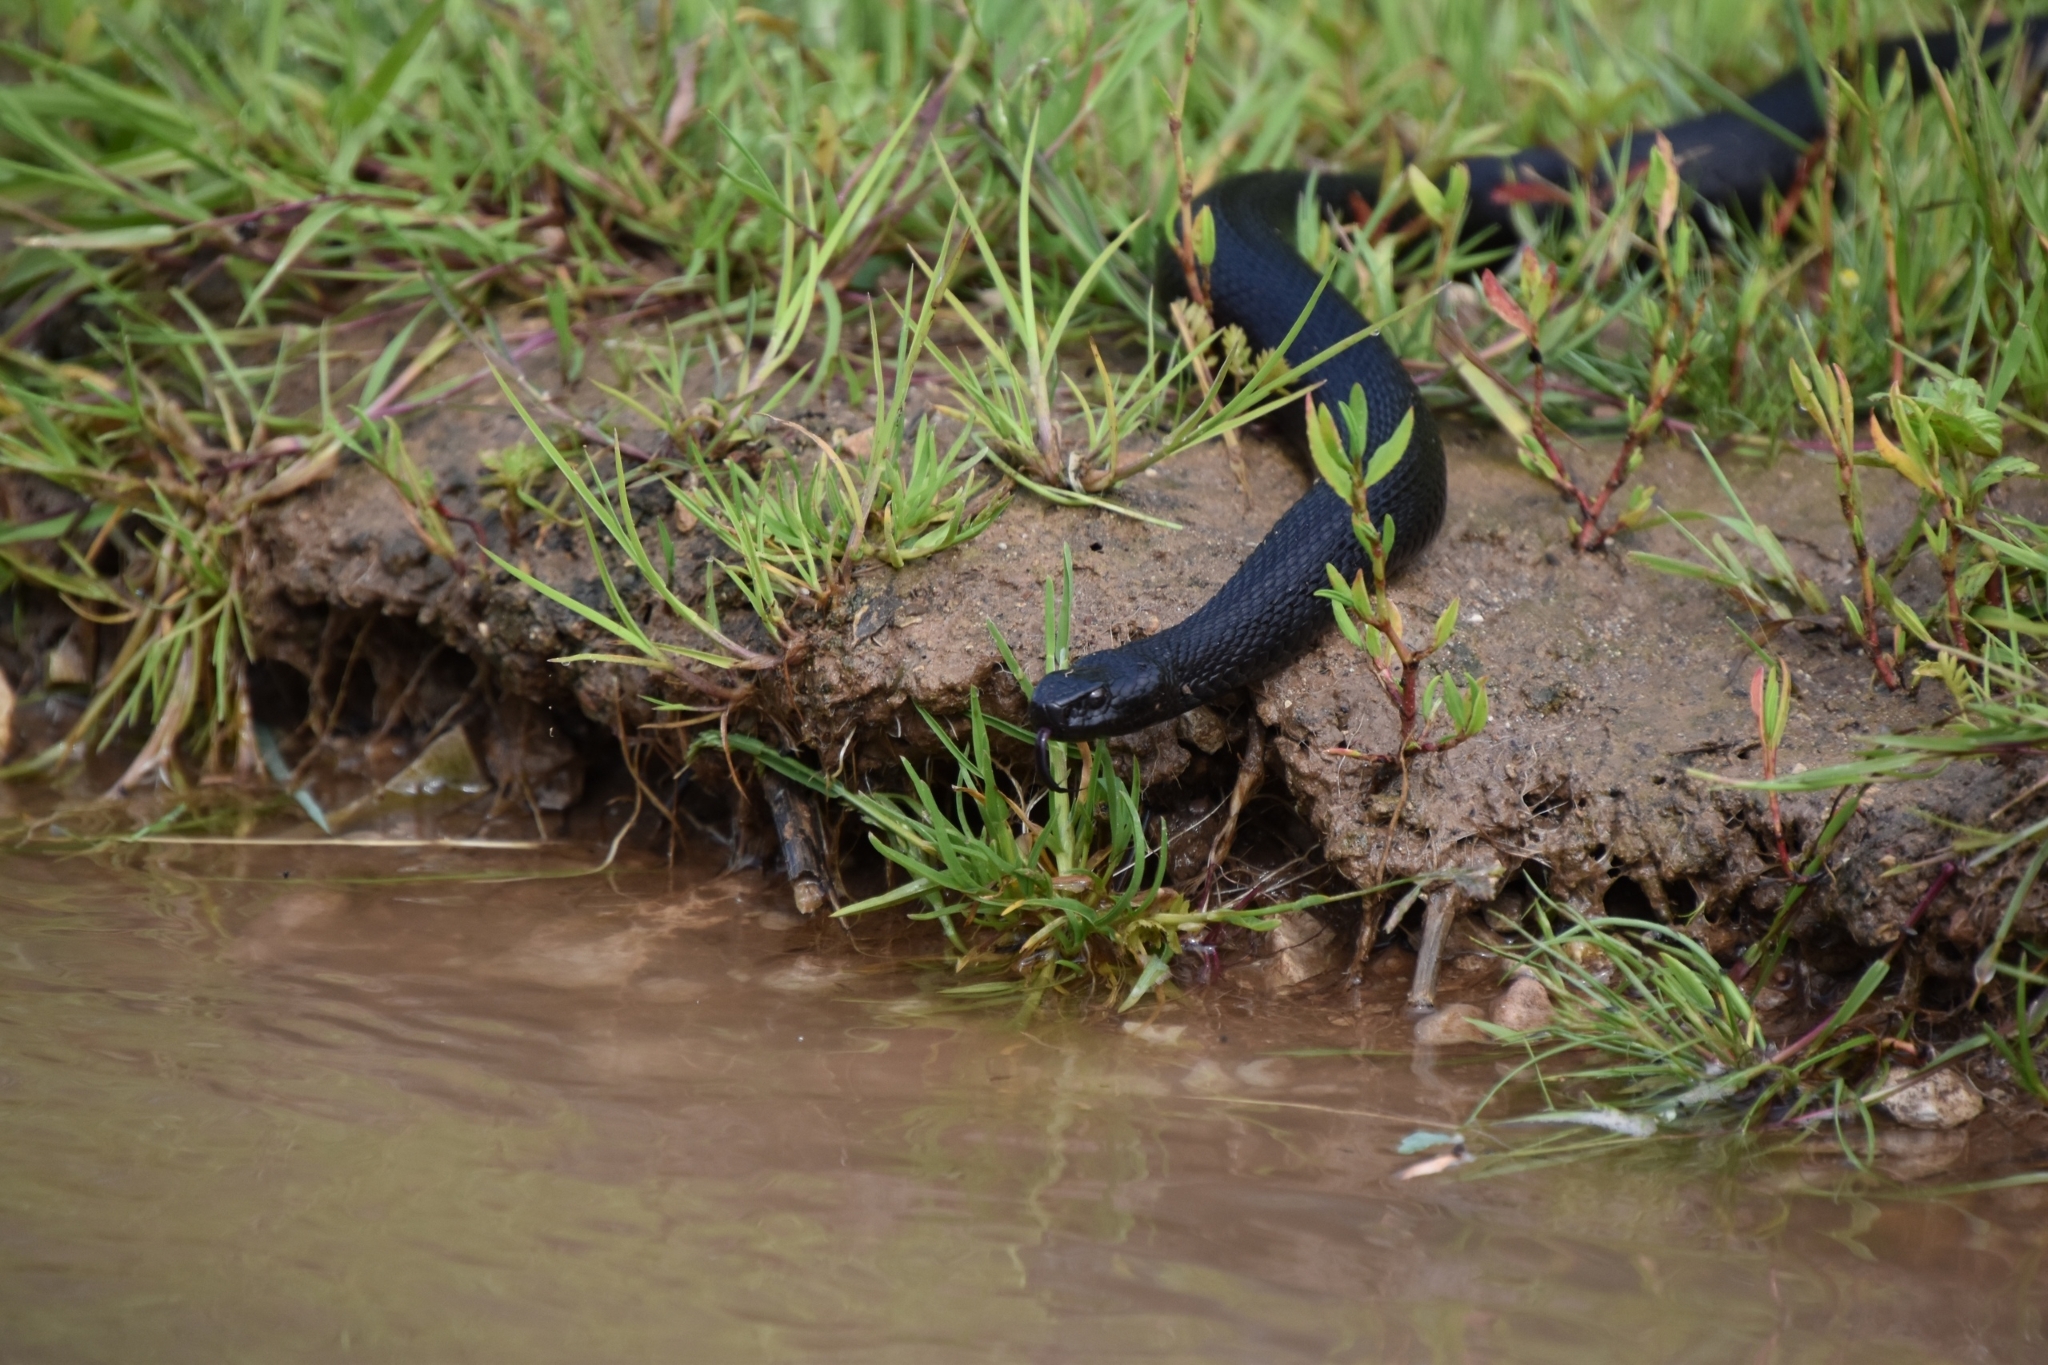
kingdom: Animalia
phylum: Chordata
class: Squamata
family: Viperidae
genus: Vipera
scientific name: Vipera berus
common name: Adder
